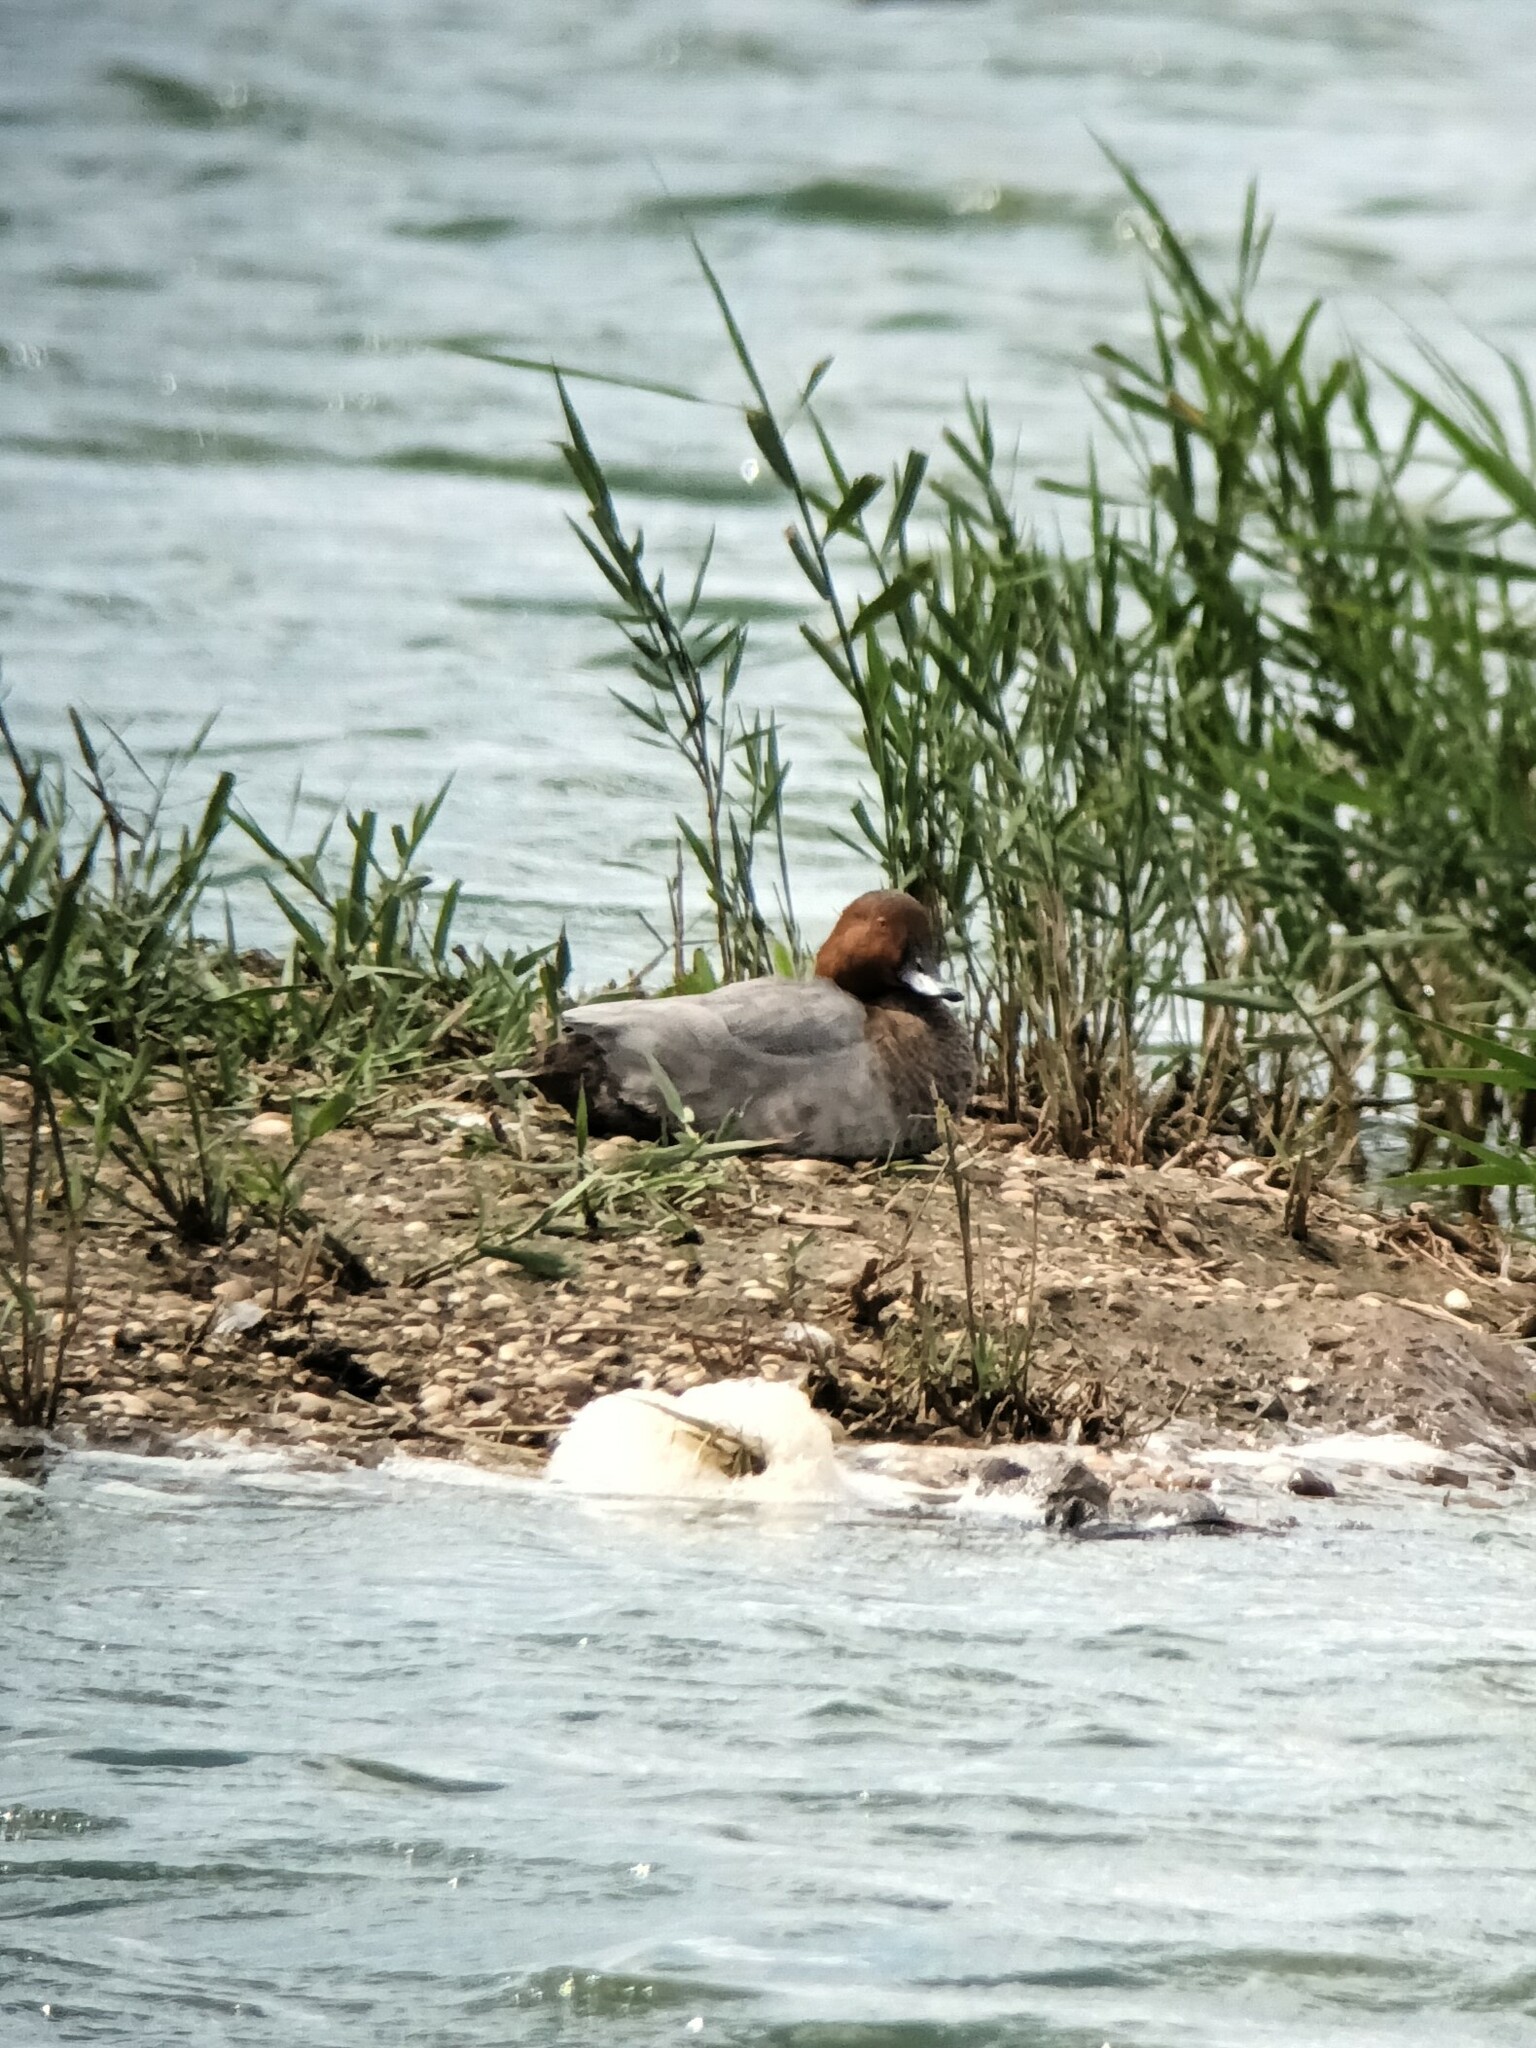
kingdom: Animalia
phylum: Chordata
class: Aves
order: Anseriformes
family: Anatidae
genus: Aythya
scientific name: Aythya ferina
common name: Common pochard
